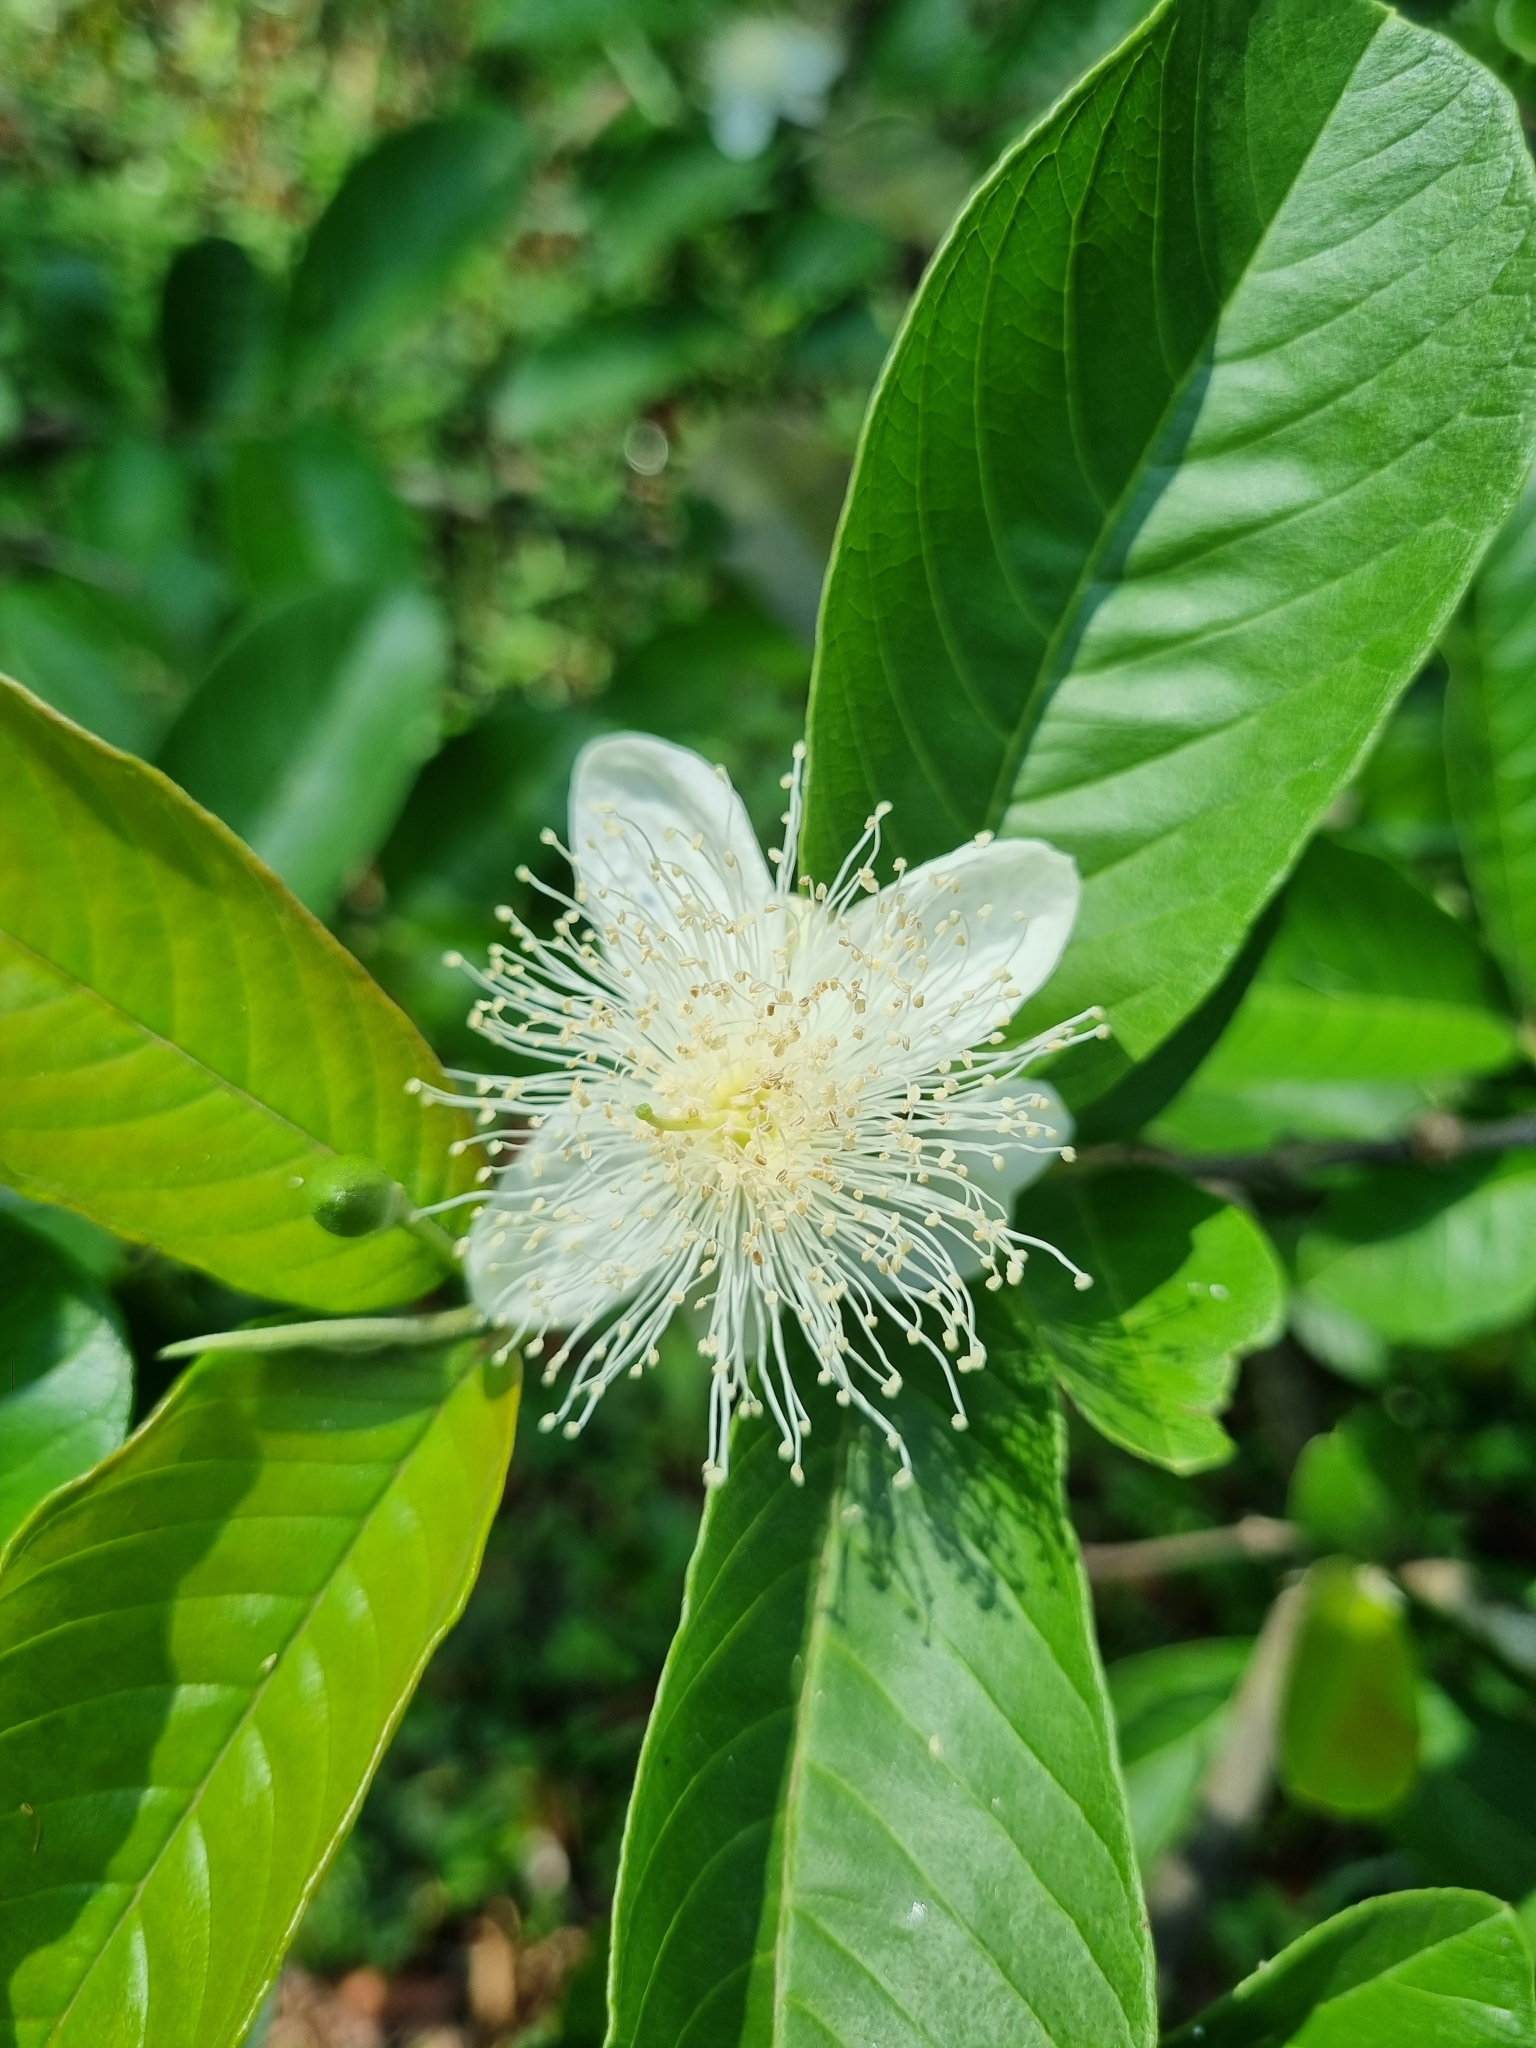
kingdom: Plantae
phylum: Tracheophyta
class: Magnoliopsida
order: Myrtales
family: Myrtaceae
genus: Psidium
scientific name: Psidium guajava
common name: Guava
